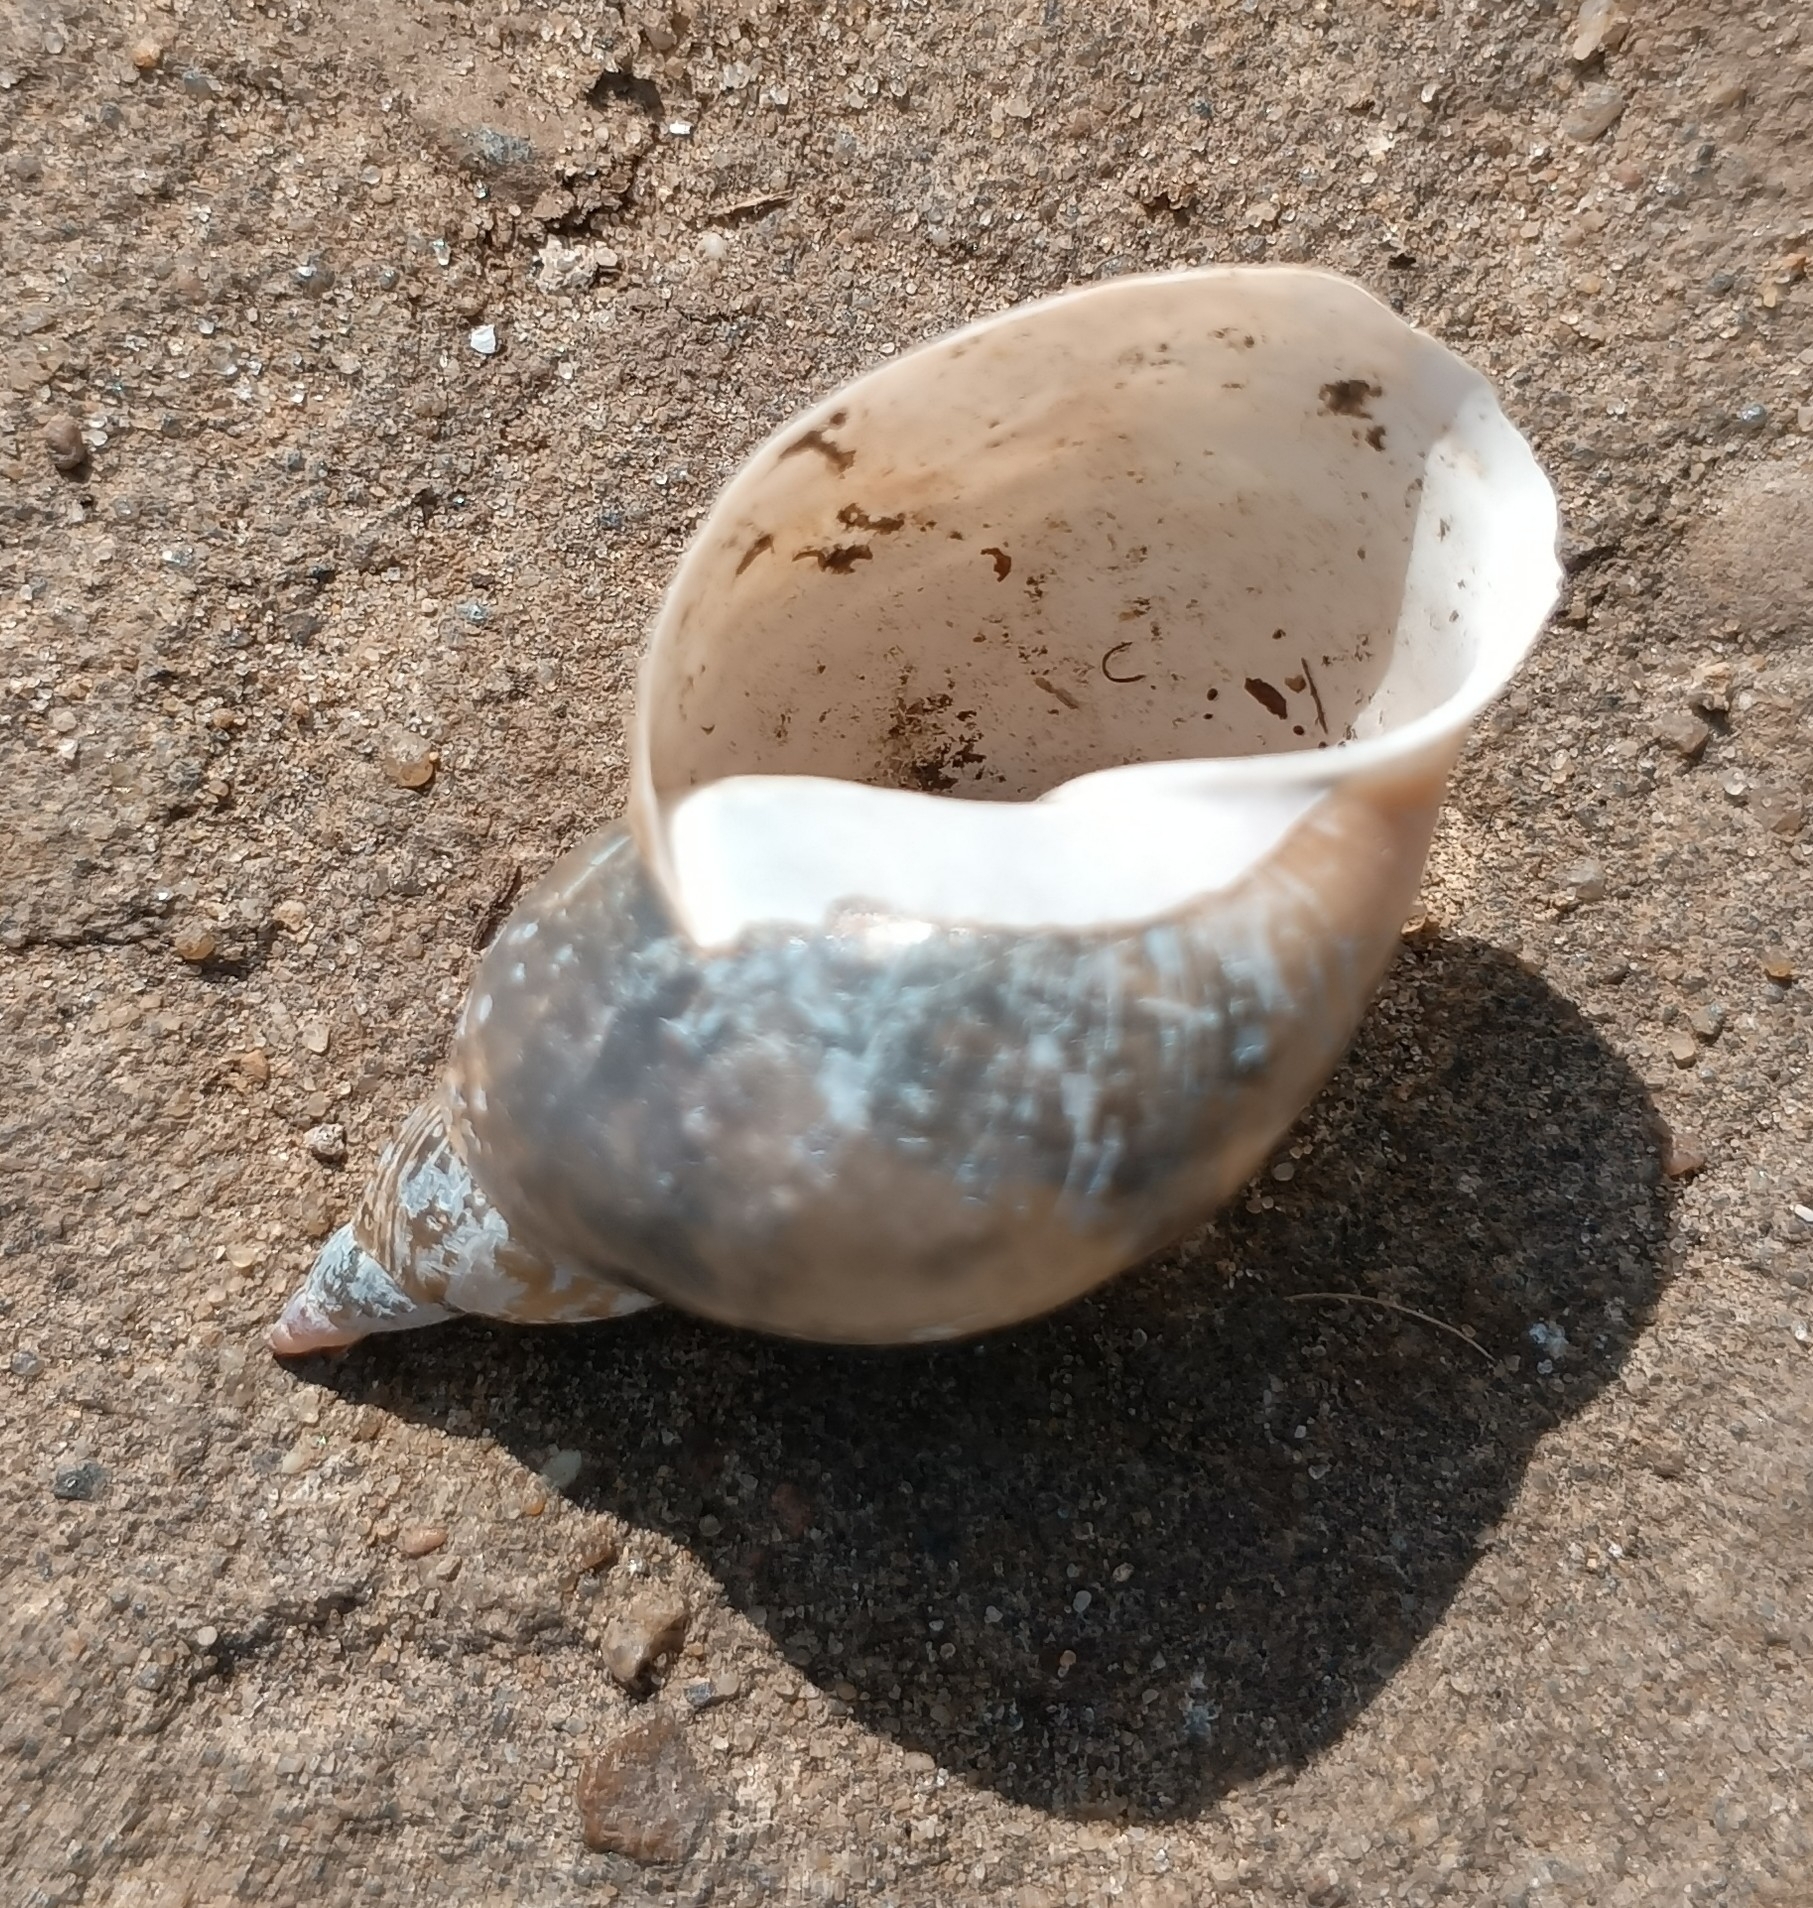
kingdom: Animalia
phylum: Mollusca
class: Gastropoda
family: Lymnaeidae
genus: Lymnaea
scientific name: Lymnaea stagnalis
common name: Great pond snail
